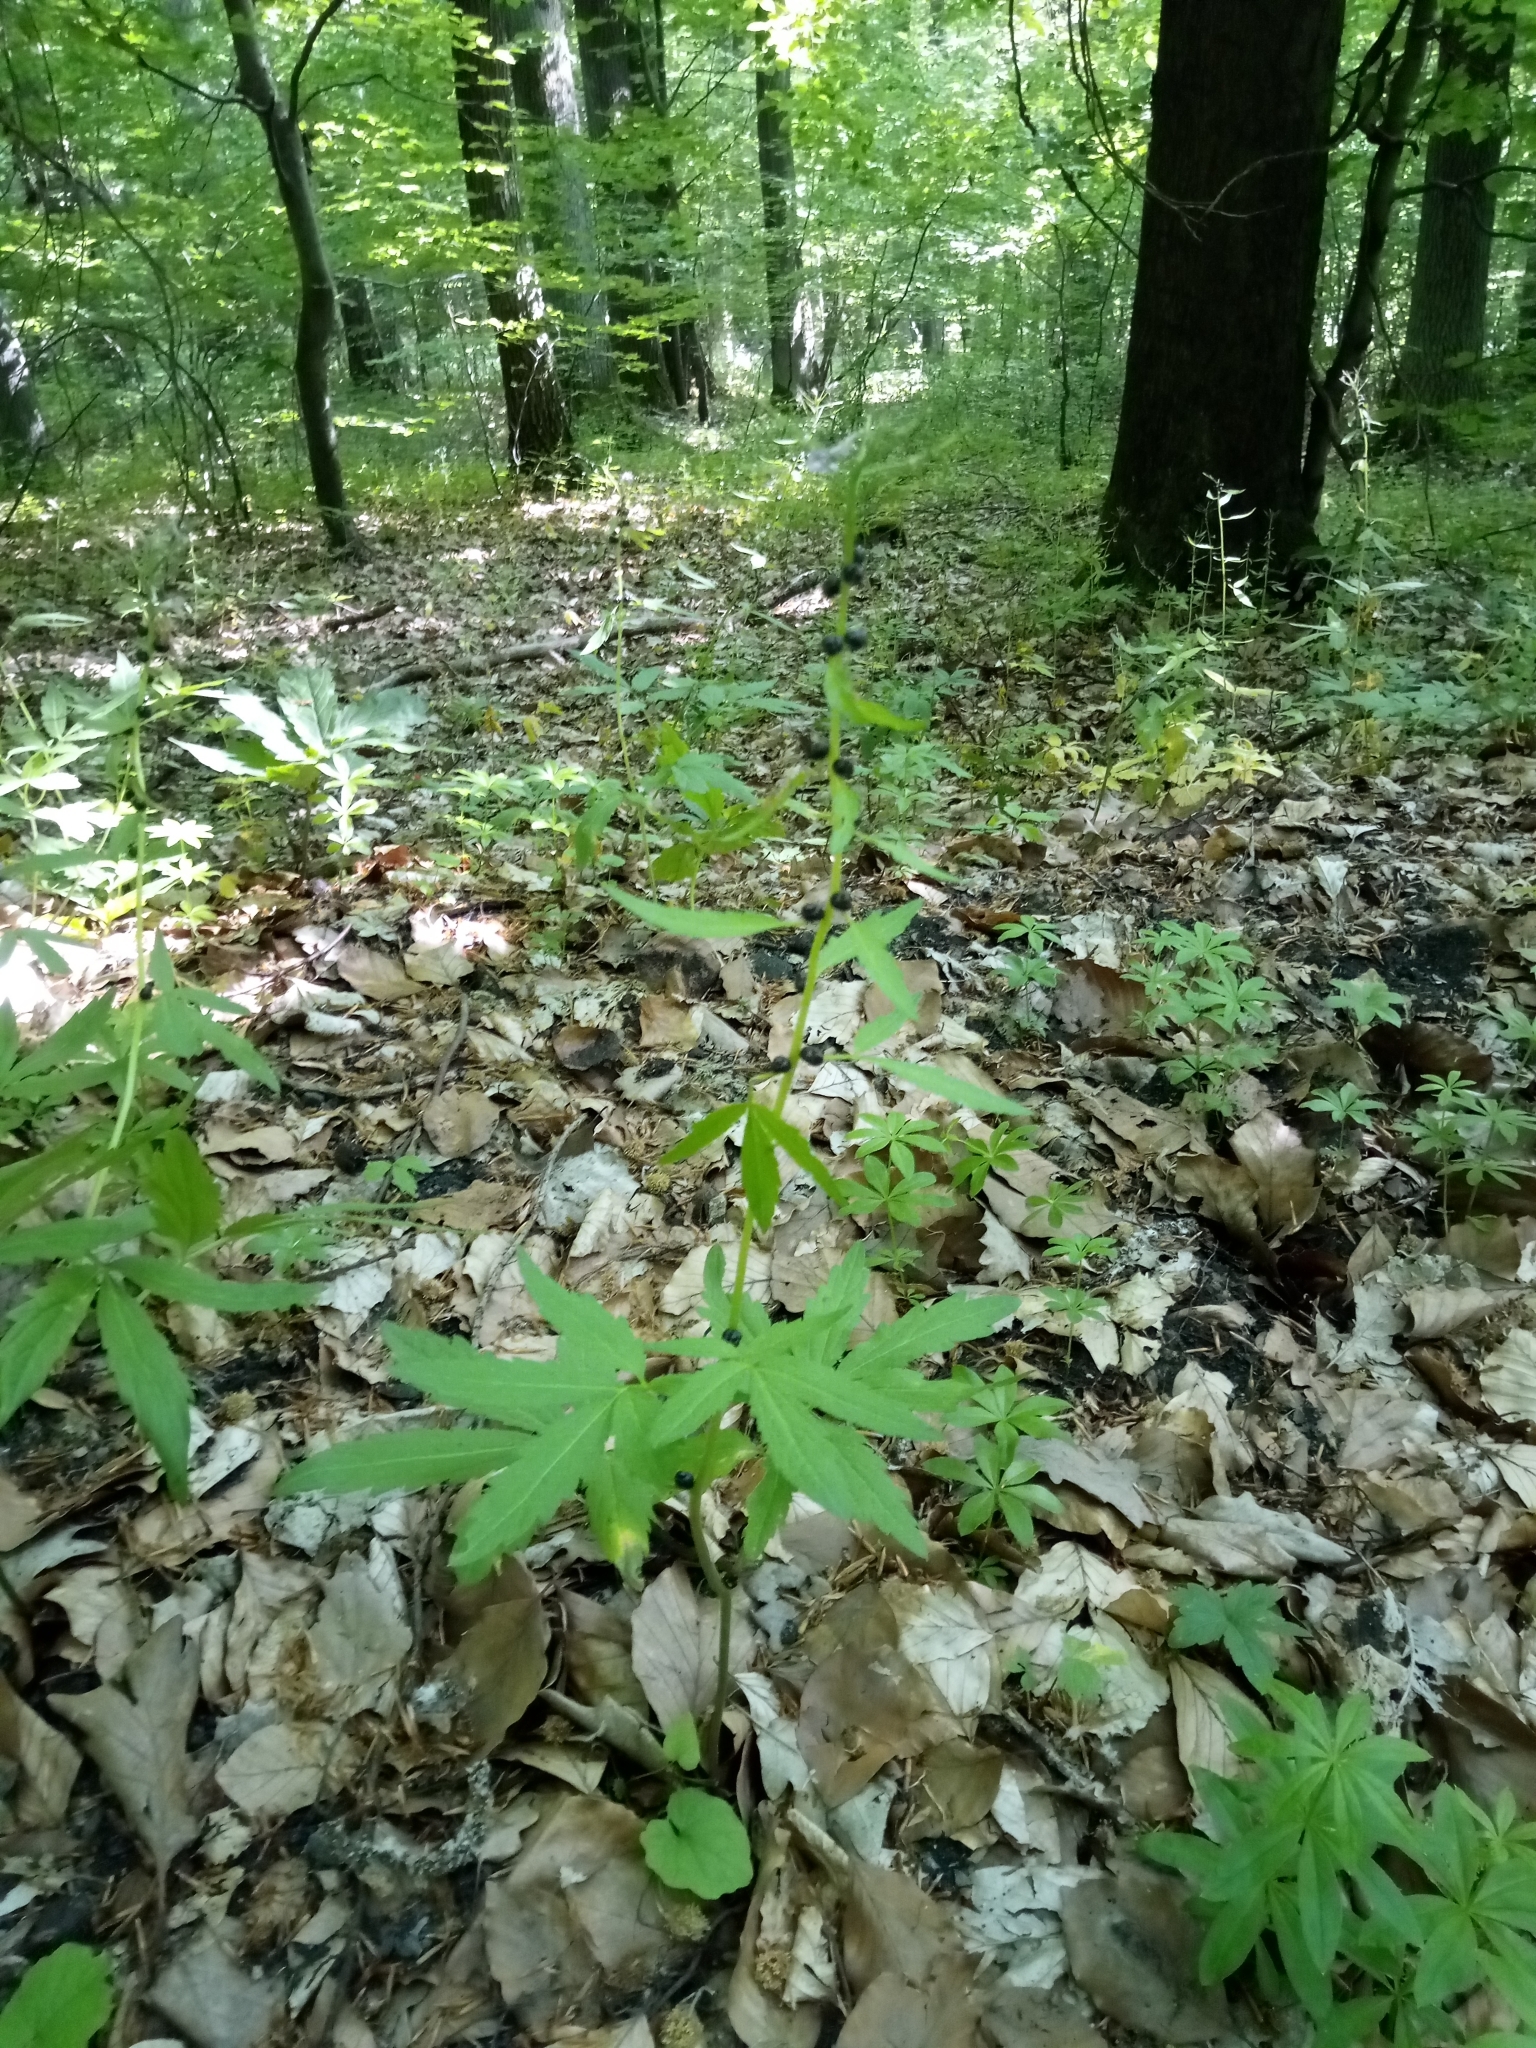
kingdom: Plantae
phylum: Tracheophyta
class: Magnoliopsida
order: Brassicales
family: Brassicaceae
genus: Cardamine
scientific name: Cardamine bulbifera
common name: Coralroot bittercress
